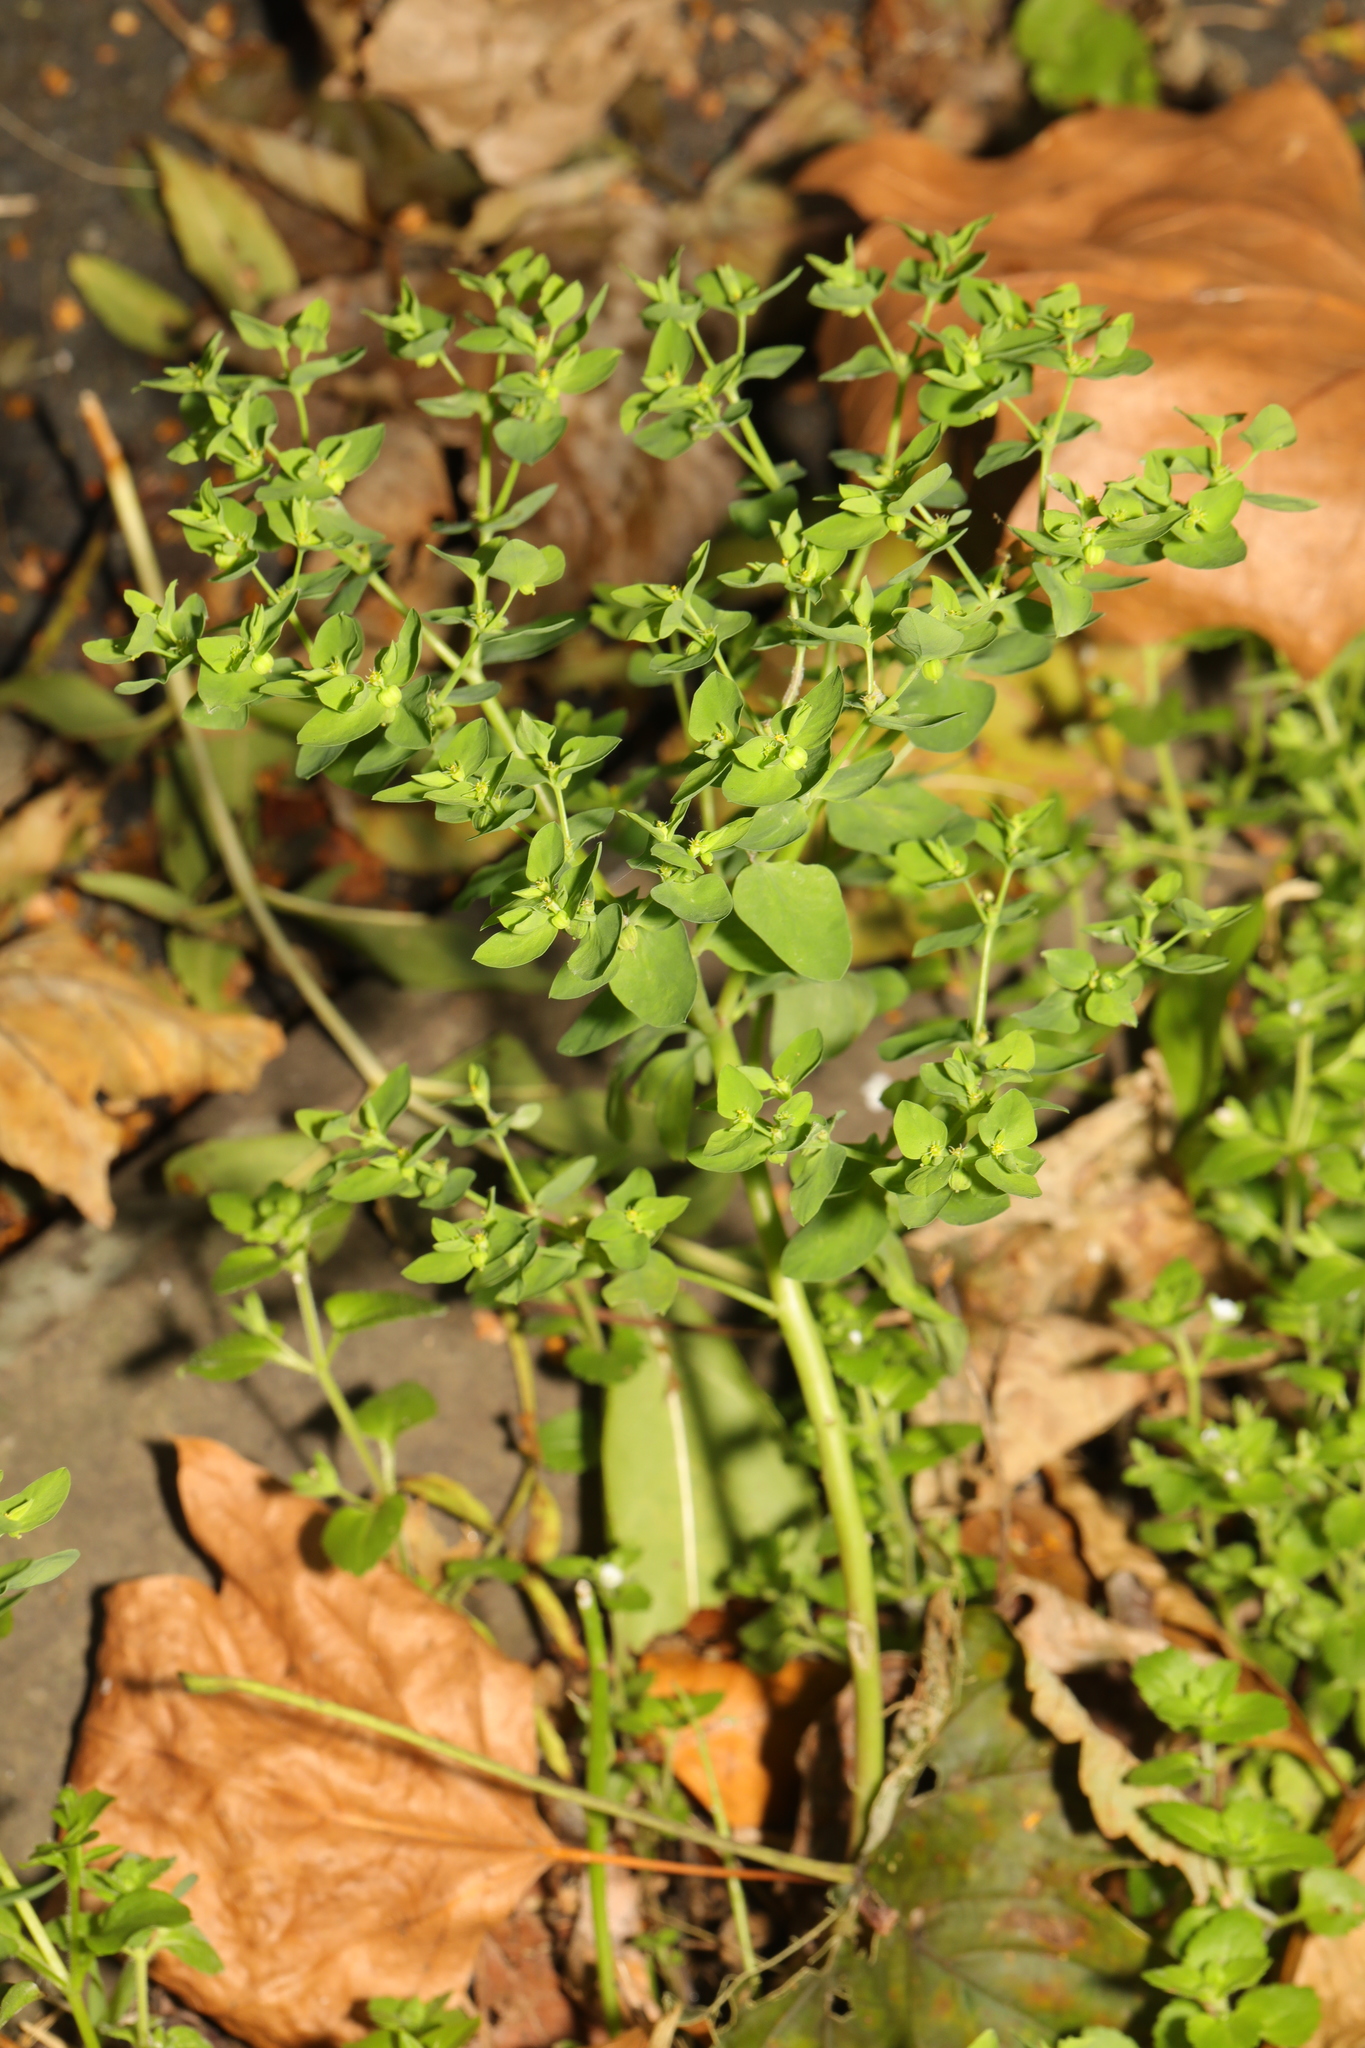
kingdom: Plantae
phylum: Tracheophyta
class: Magnoliopsida
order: Malpighiales
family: Euphorbiaceae
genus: Euphorbia
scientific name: Euphorbia peplus
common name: Petty spurge
